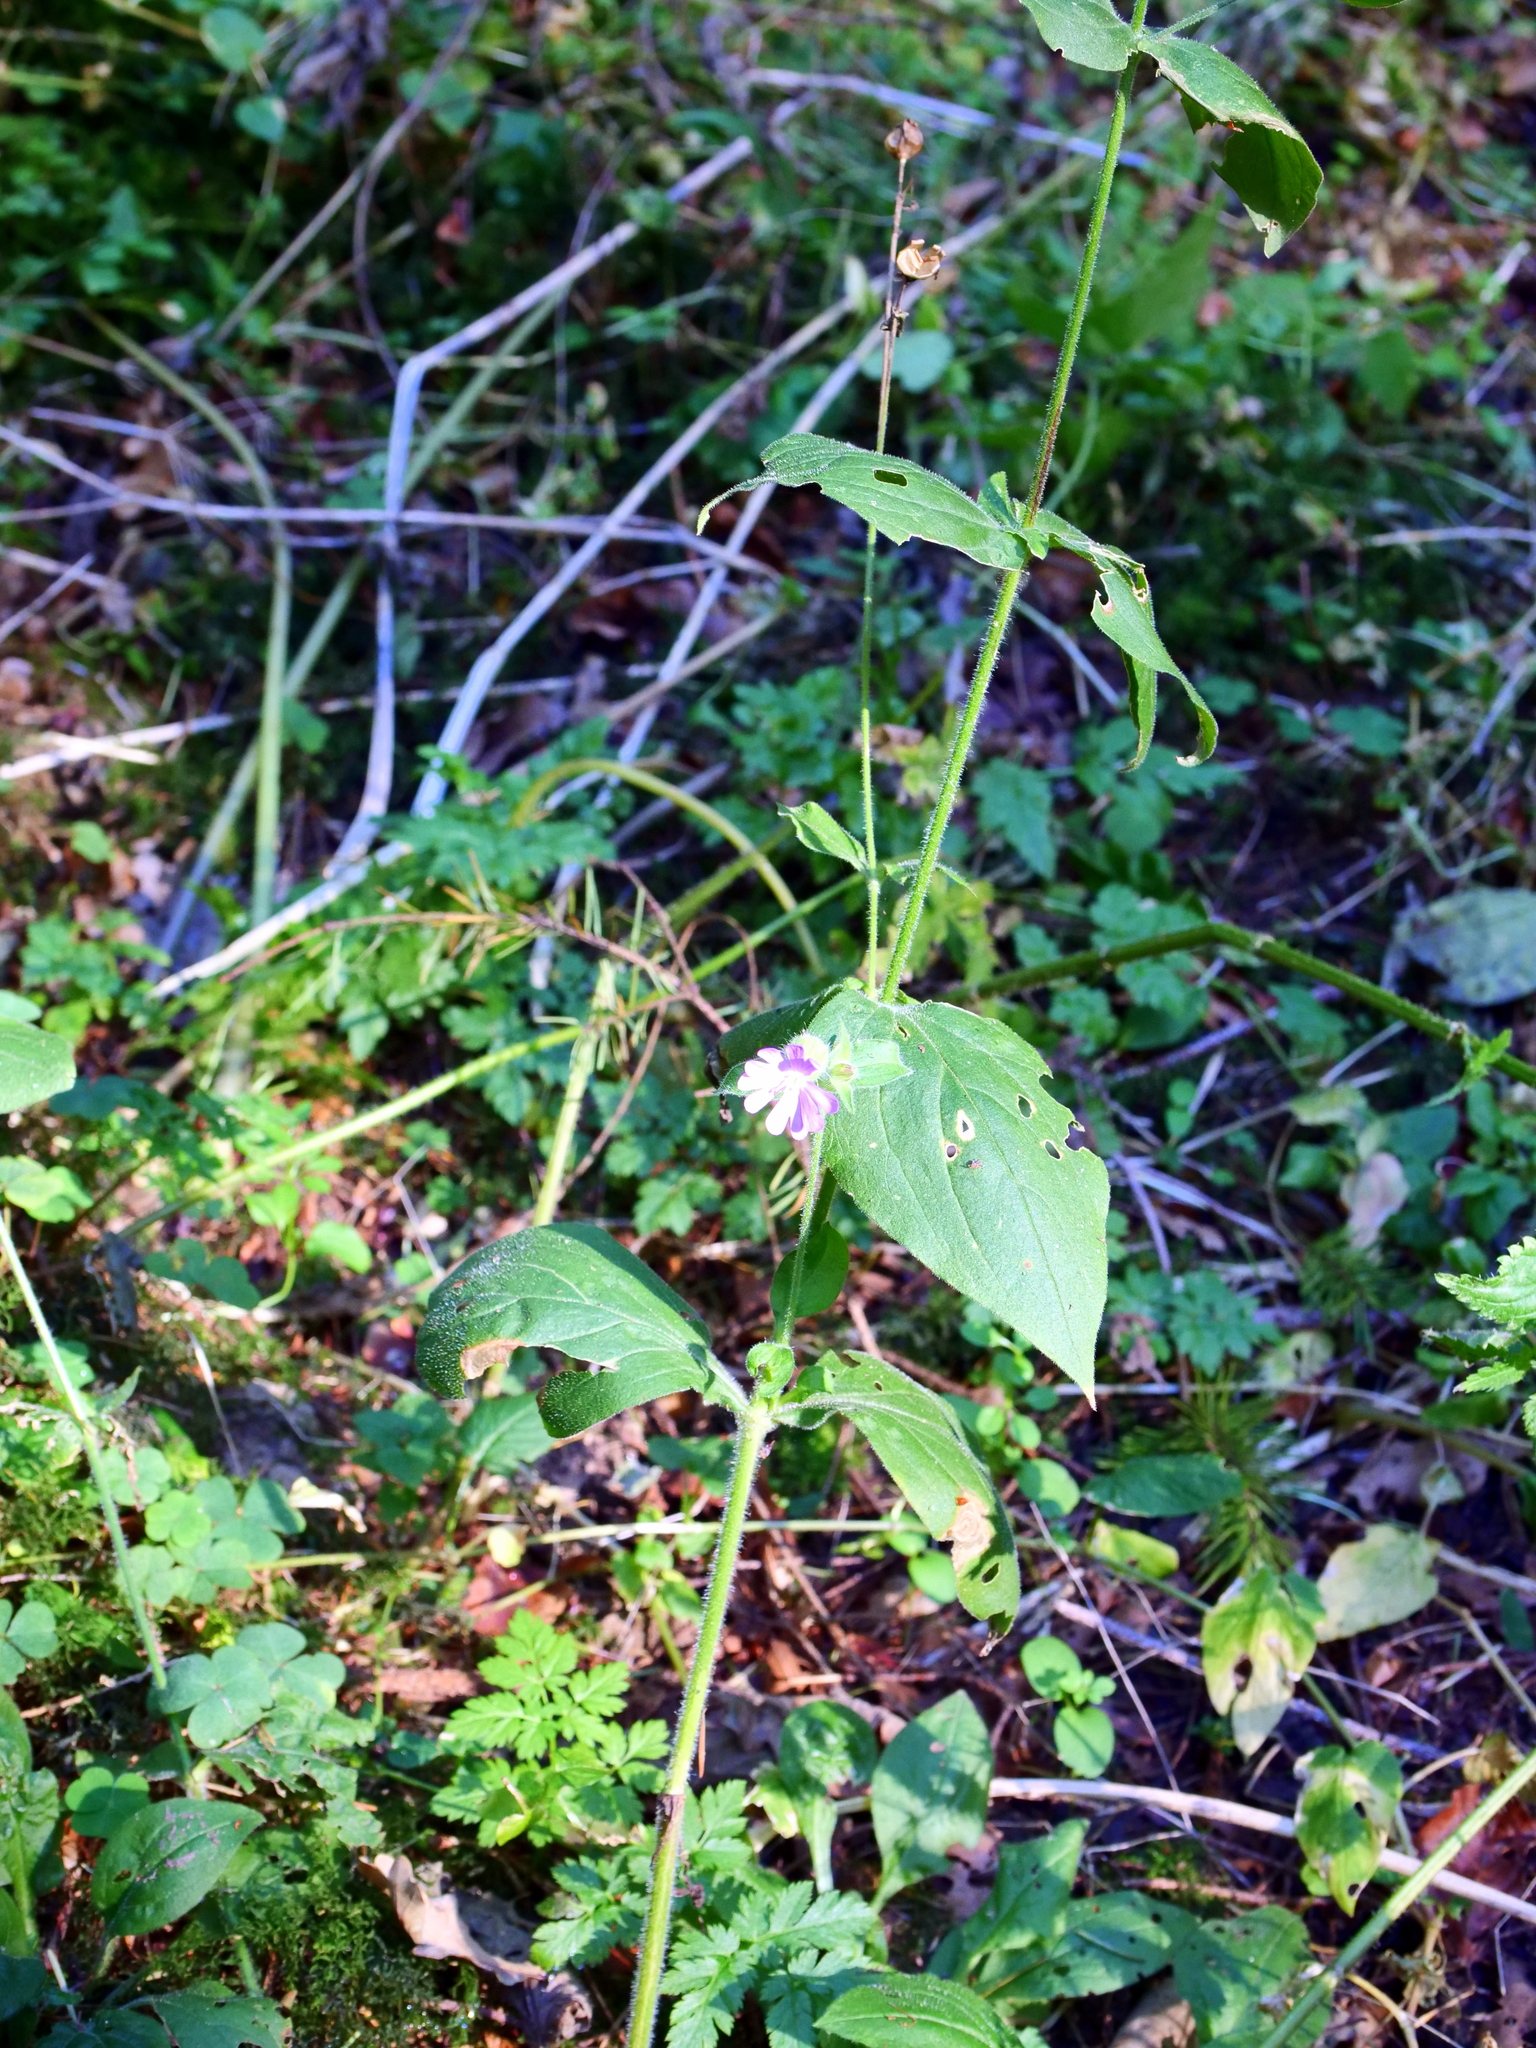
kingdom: Plantae
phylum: Tracheophyta
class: Magnoliopsida
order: Caryophyllales
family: Caryophyllaceae
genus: Silene
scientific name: Silene dioica
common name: Red campion
